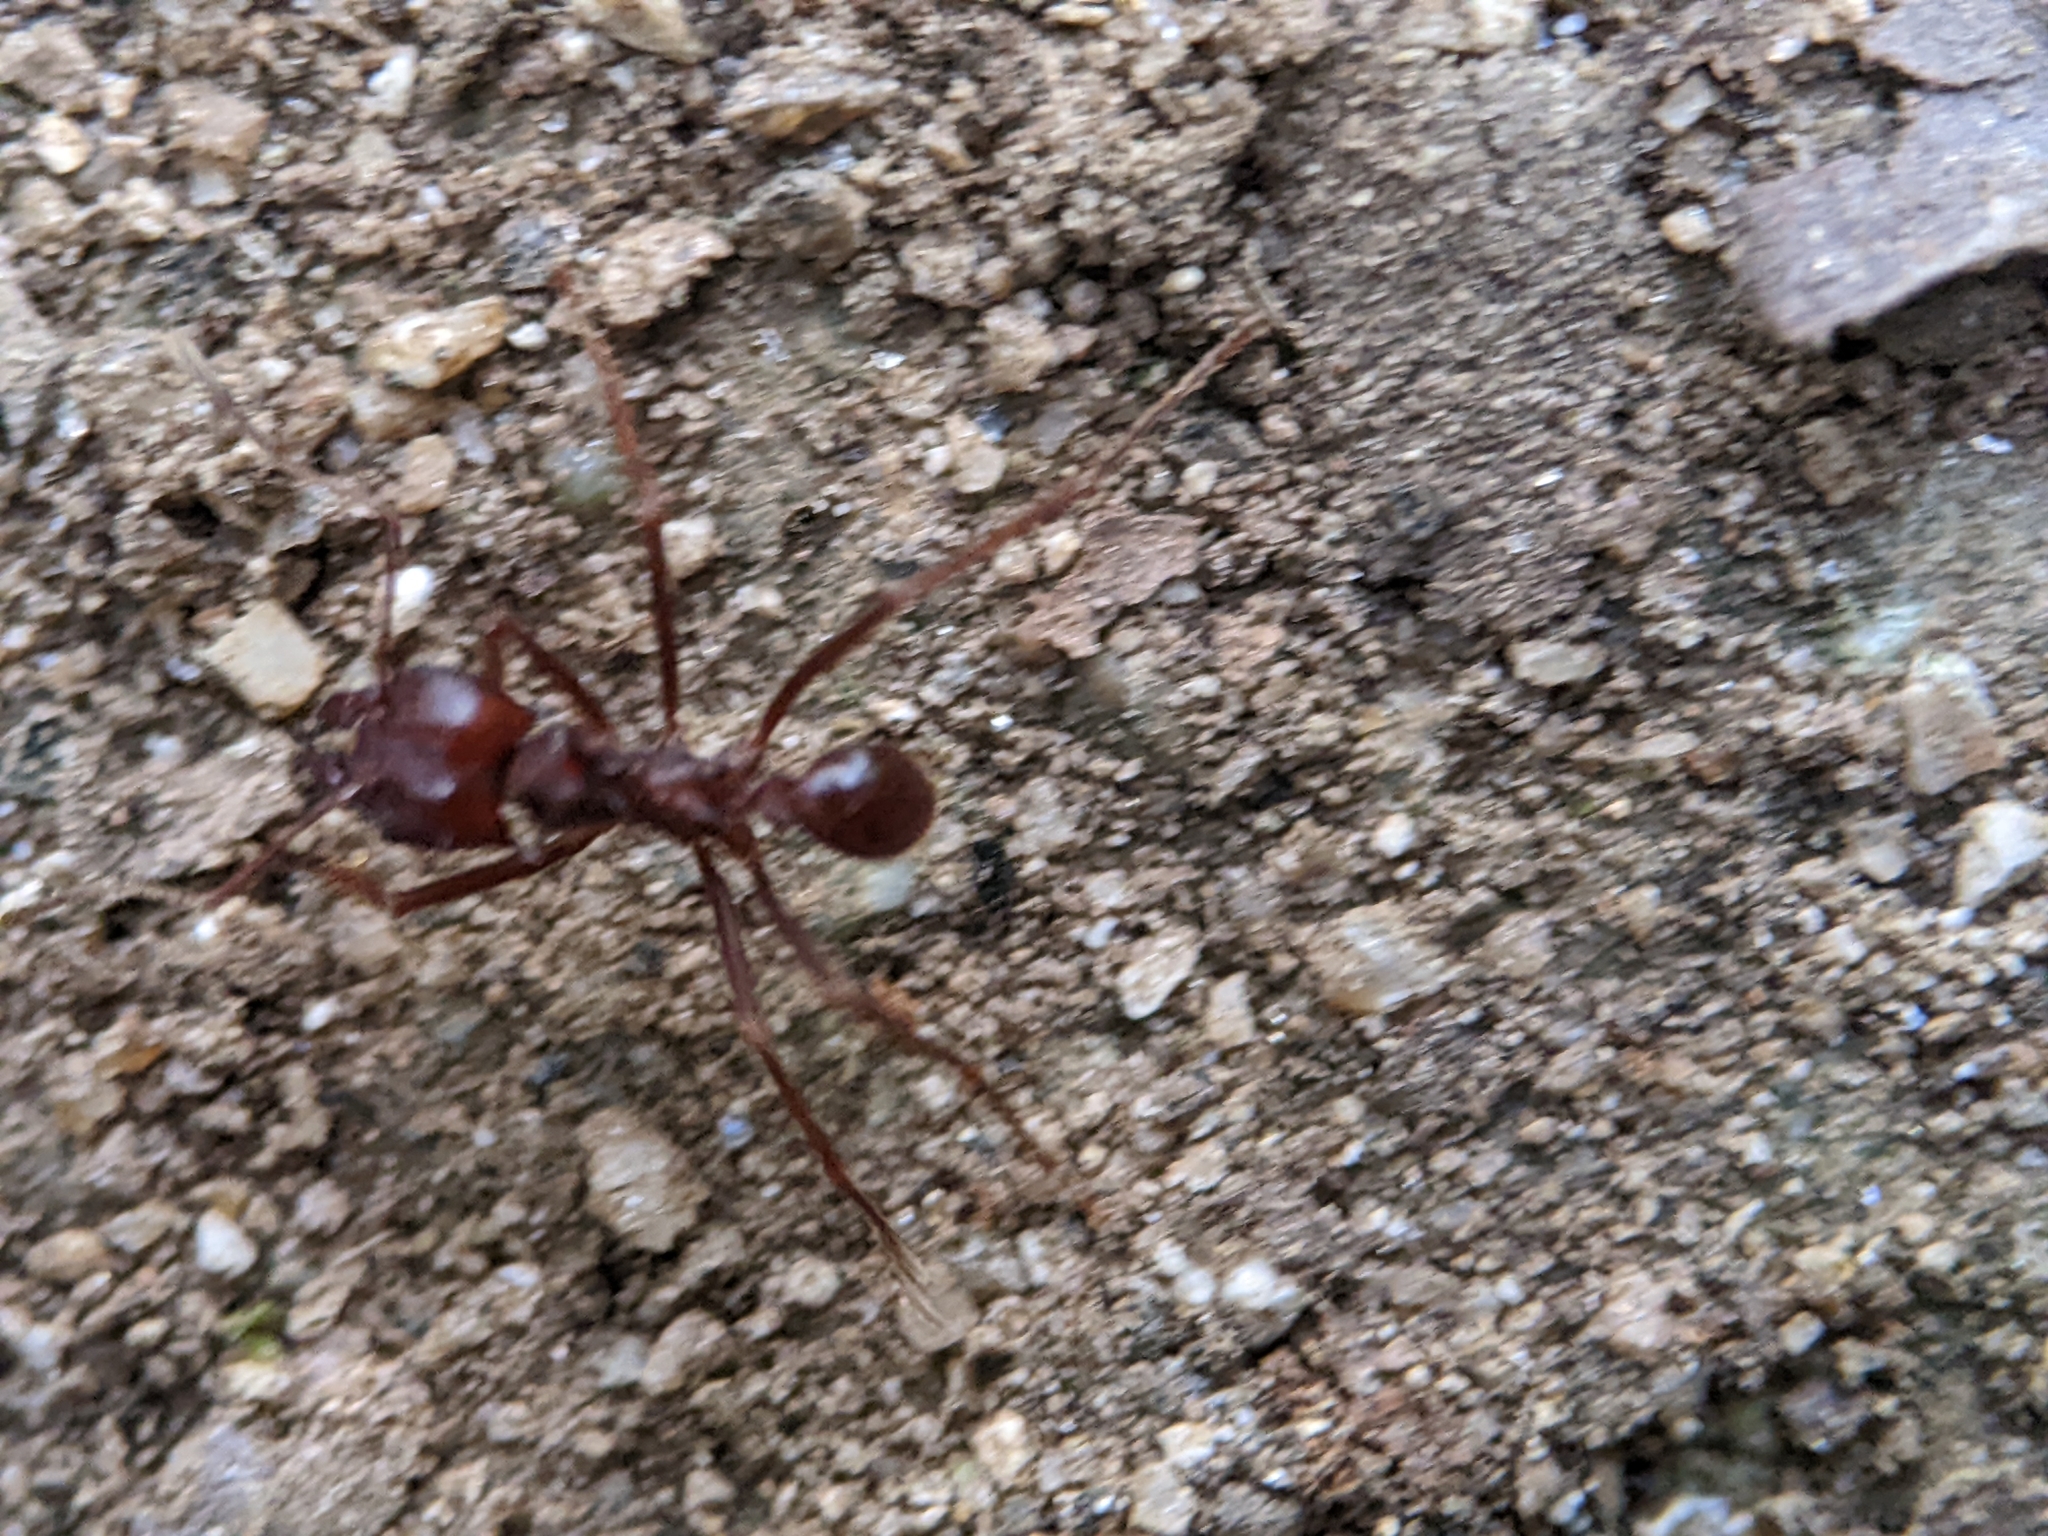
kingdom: Animalia
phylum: Arthropoda
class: Insecta
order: Hymenoptera
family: Formicidae
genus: Atta
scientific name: Atta mexicana
